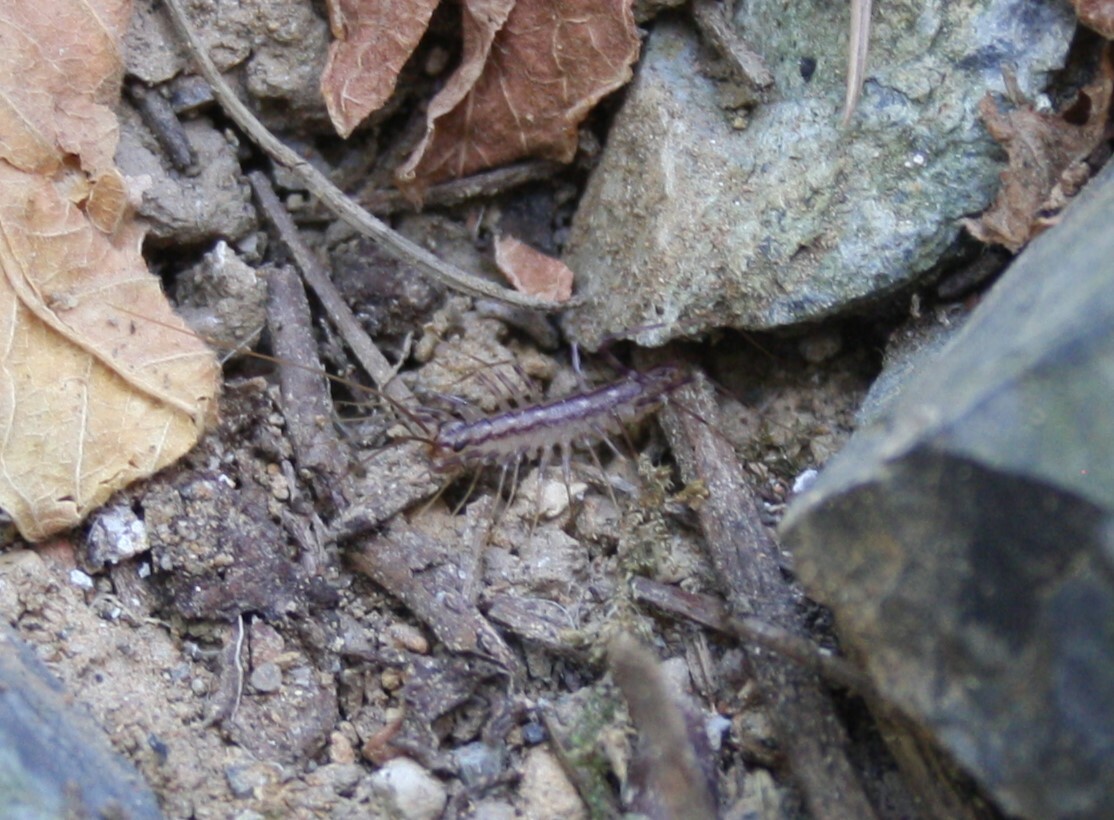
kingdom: Animalia
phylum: Arthropoda
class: Chilopoda
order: Scutigeromorpha
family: Scutigeridae
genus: Scutigera
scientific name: Scutigera coleoptrata
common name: House centipede
